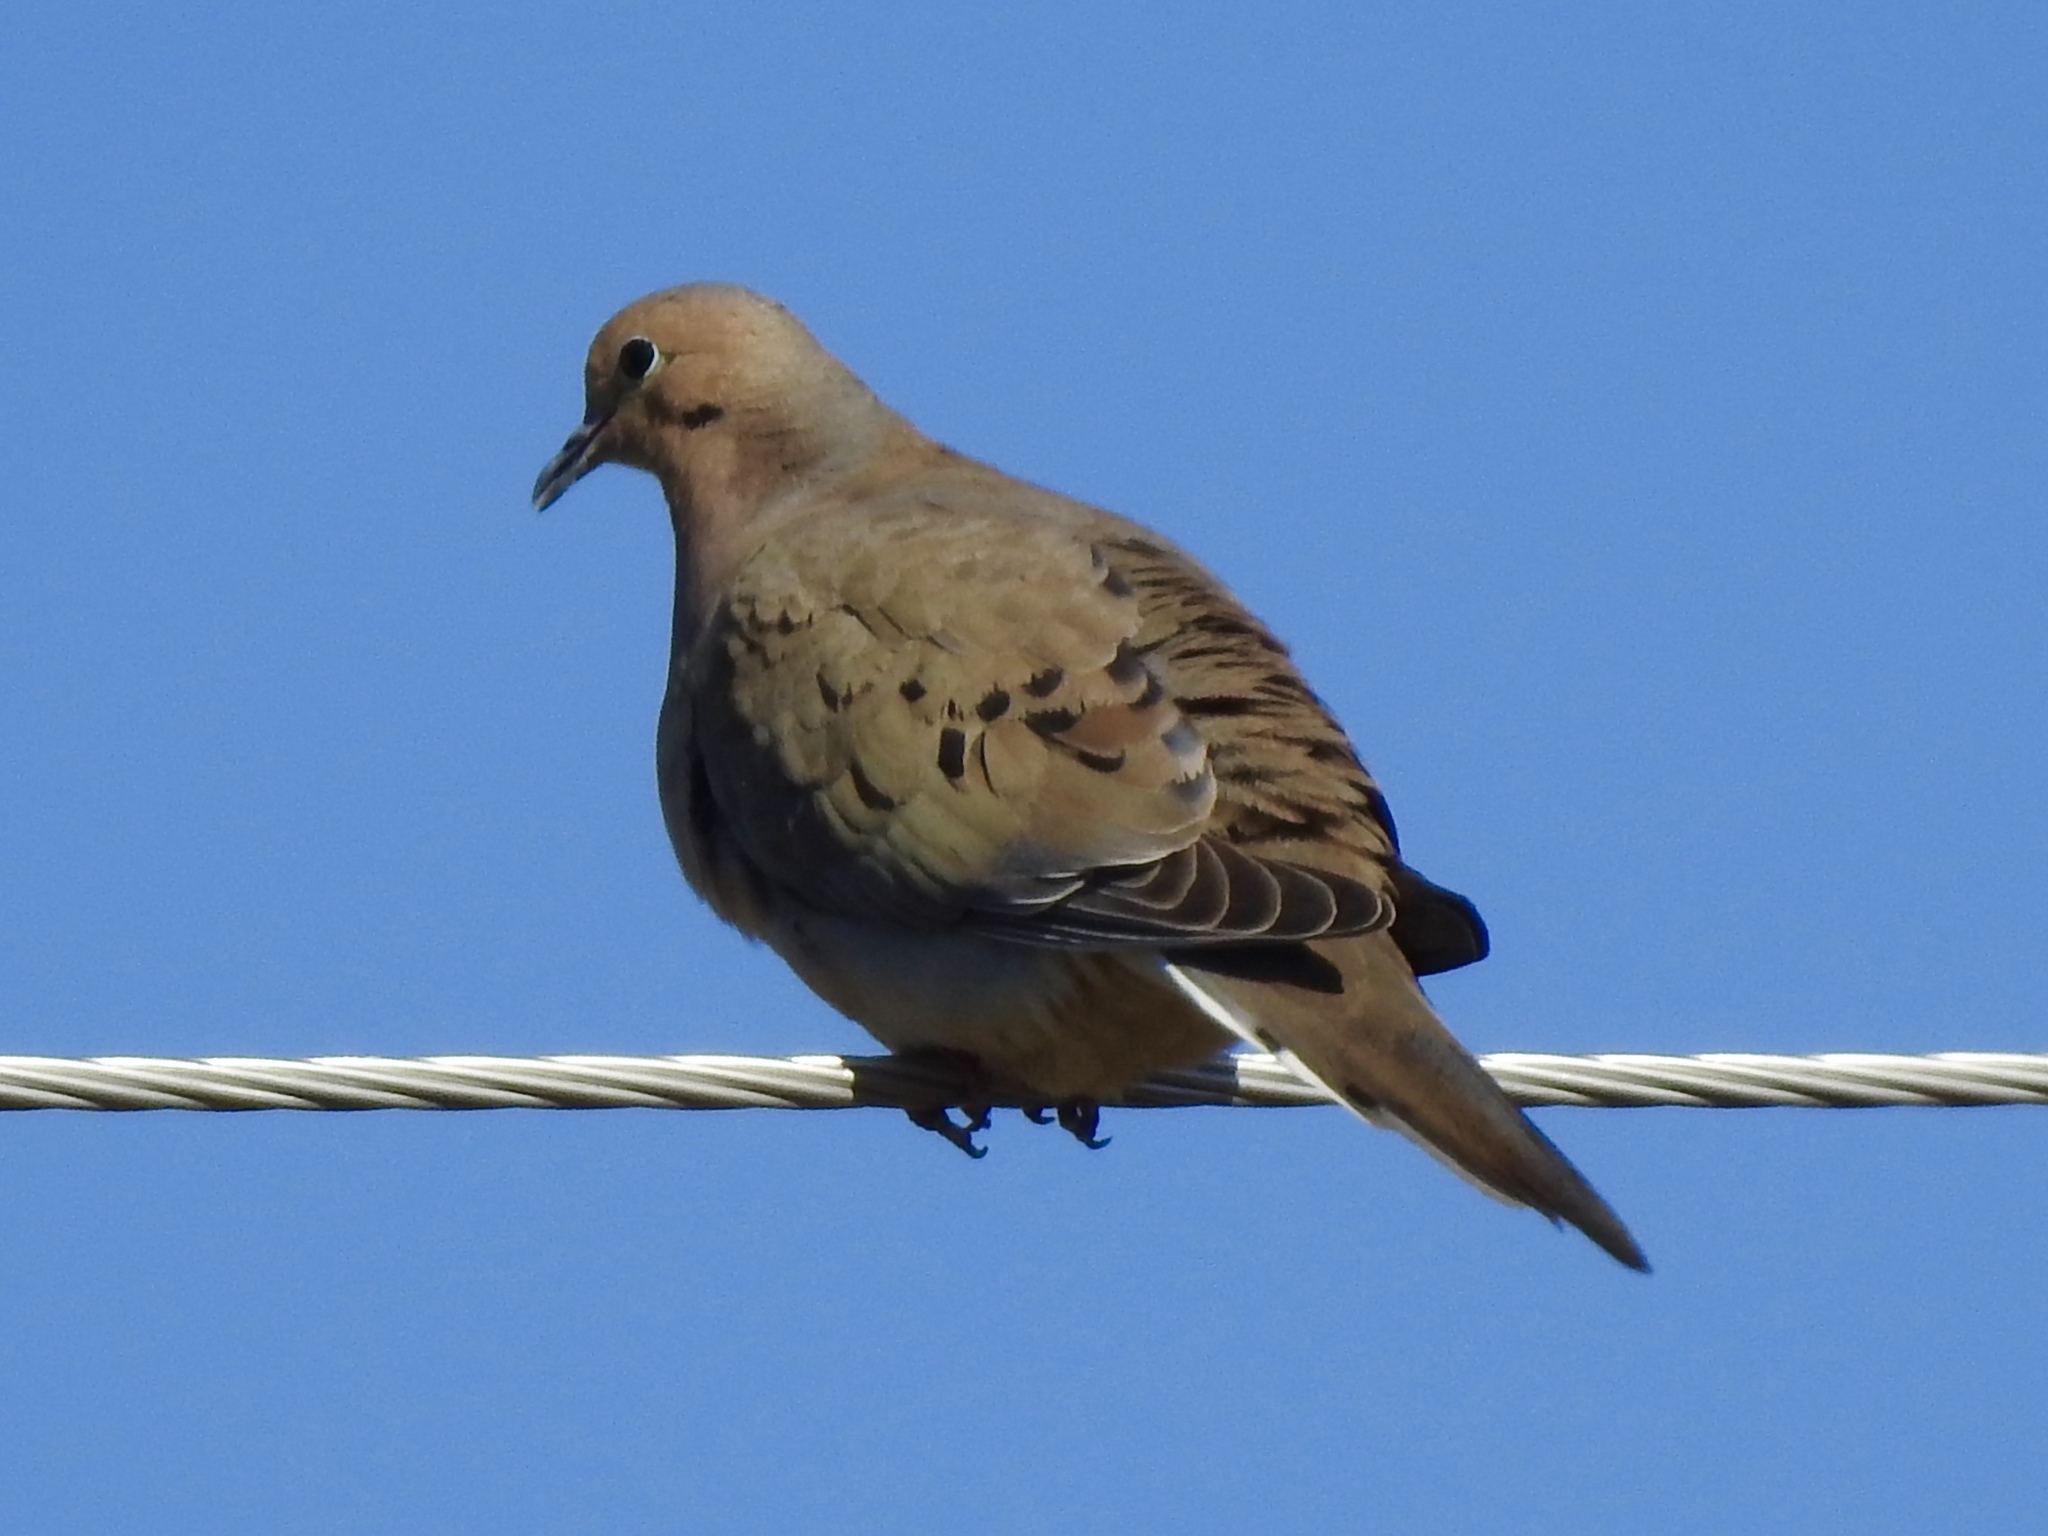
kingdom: Animalia
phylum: Chordata
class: Aves
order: Columbiformes
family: Columbidae
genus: Zenaida
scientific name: Zenaida macroura
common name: Mourning dove
